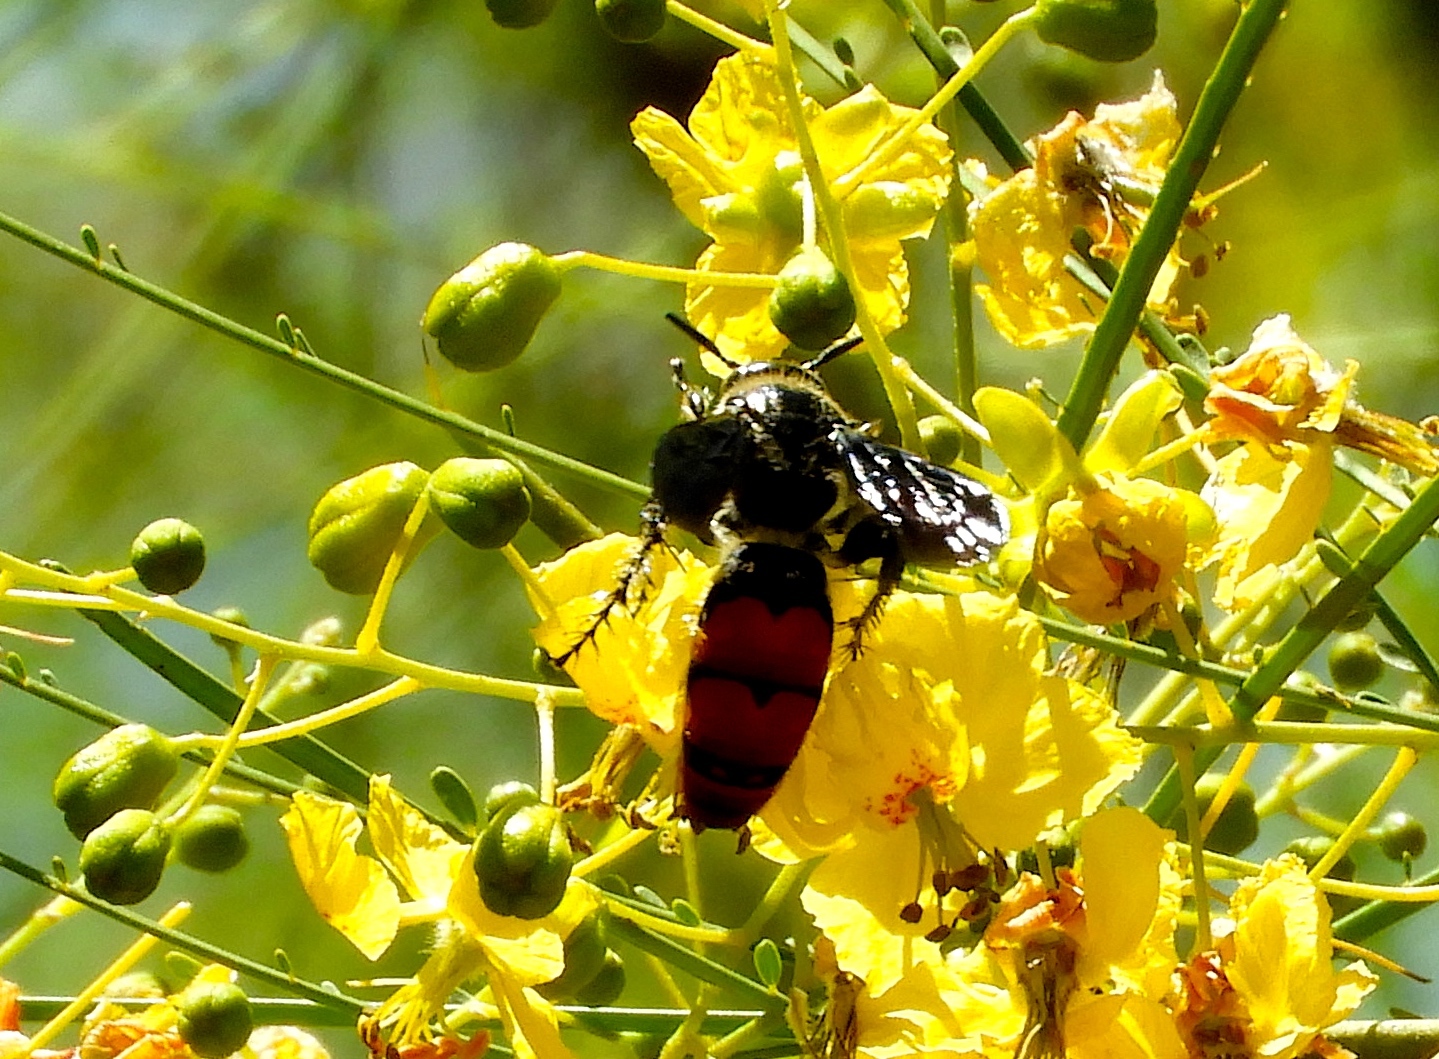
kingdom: Animalia
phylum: Arthropoda
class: Insecta
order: Hymenoptera
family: Scoliidae
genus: Dielis
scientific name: Dielis tolteca
